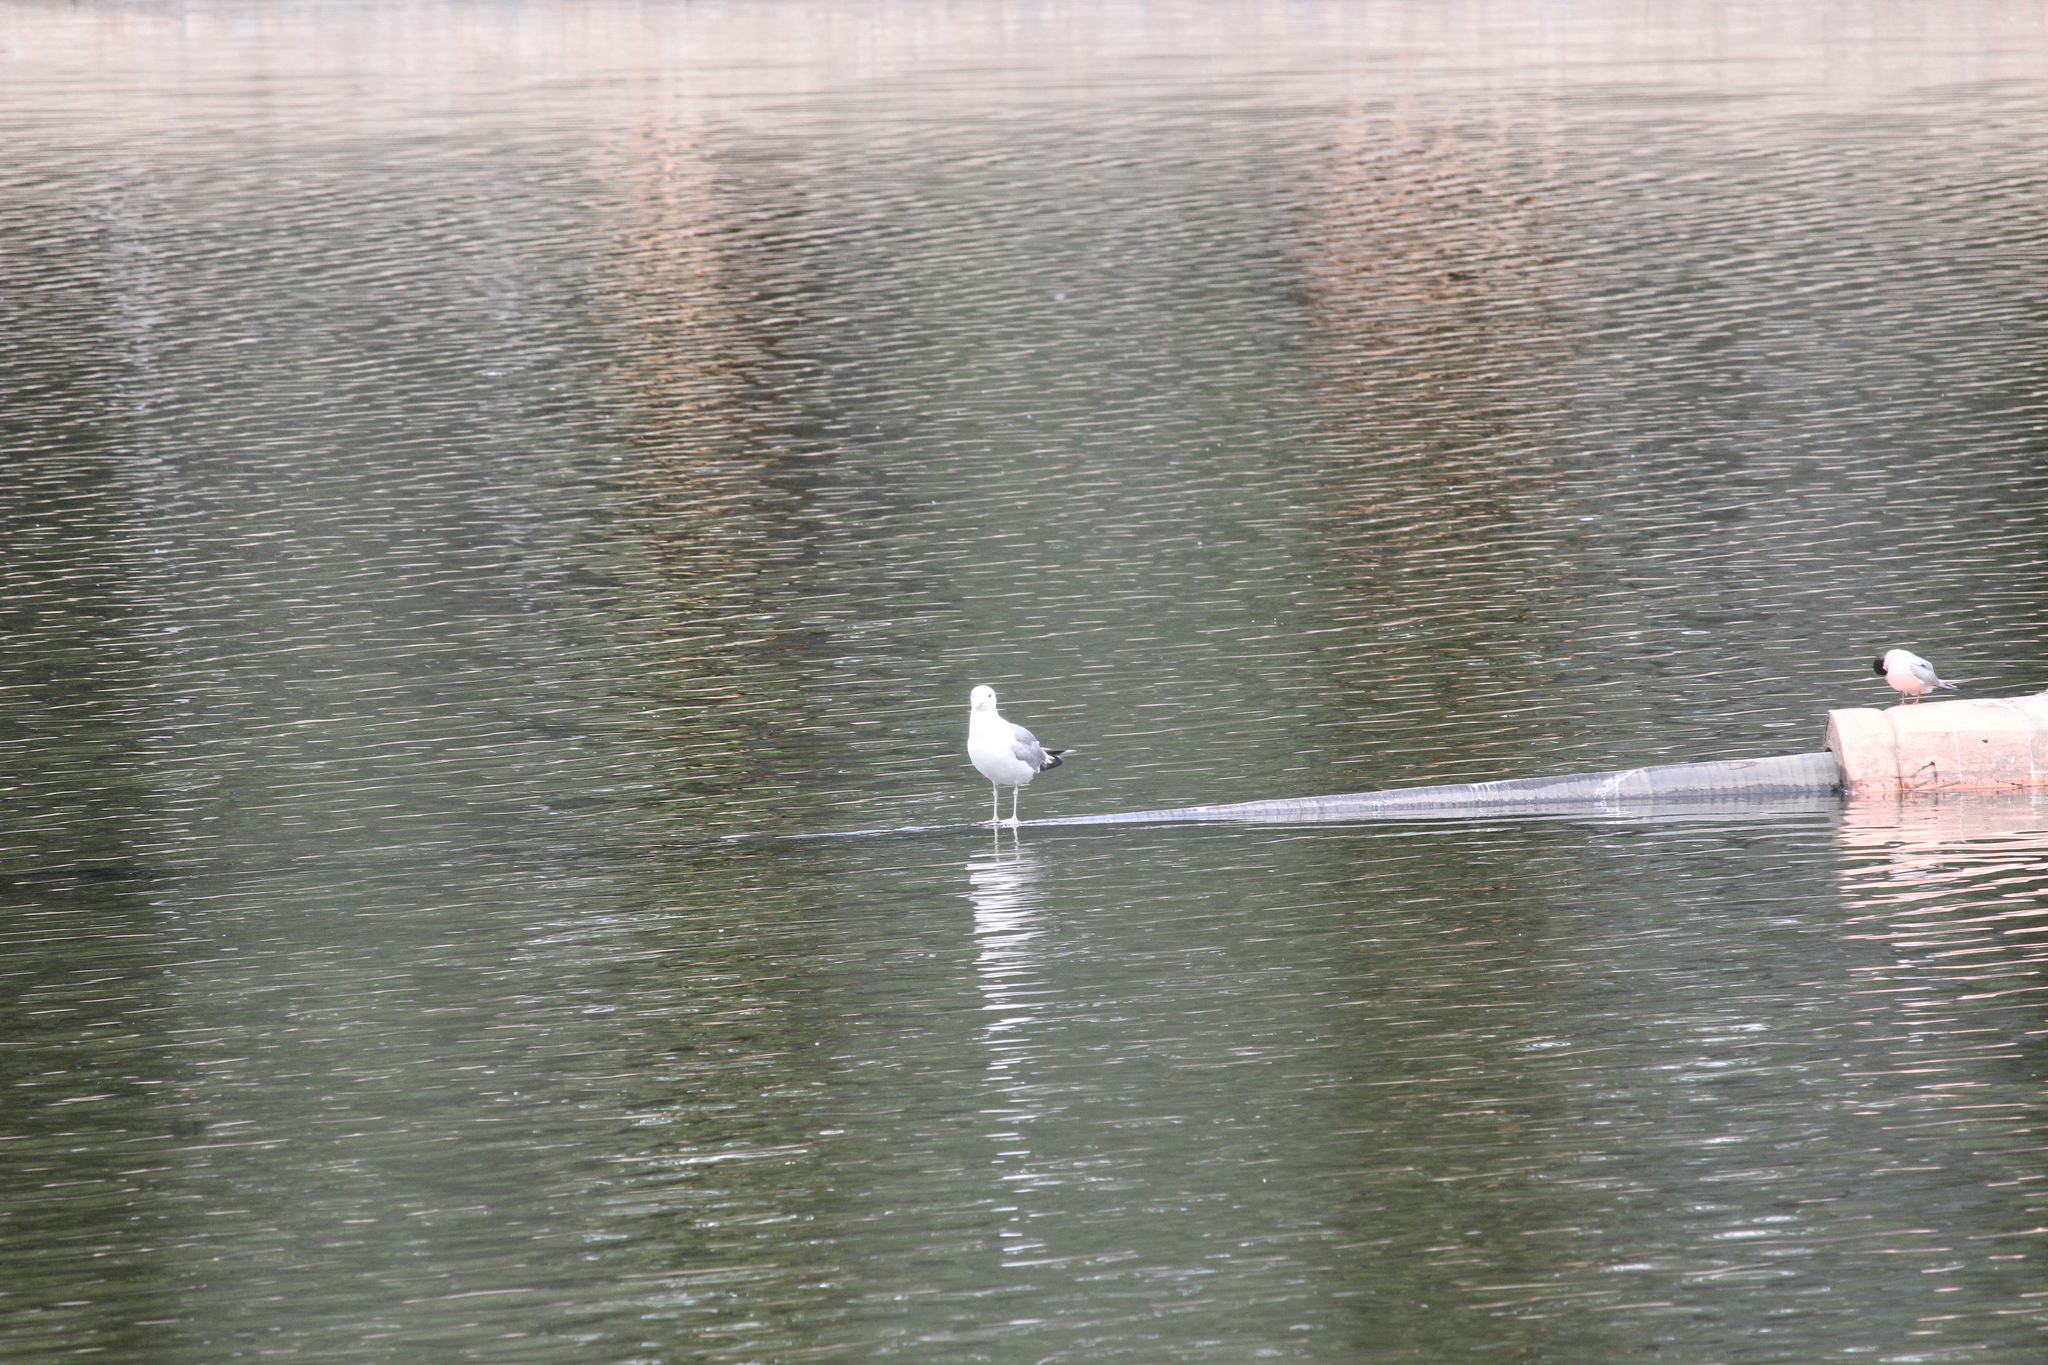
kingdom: Animalia
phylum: Chordata
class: Aves
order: Charadriiformes
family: Laridae
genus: Larus
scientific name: Larus canus
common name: Mew gull
